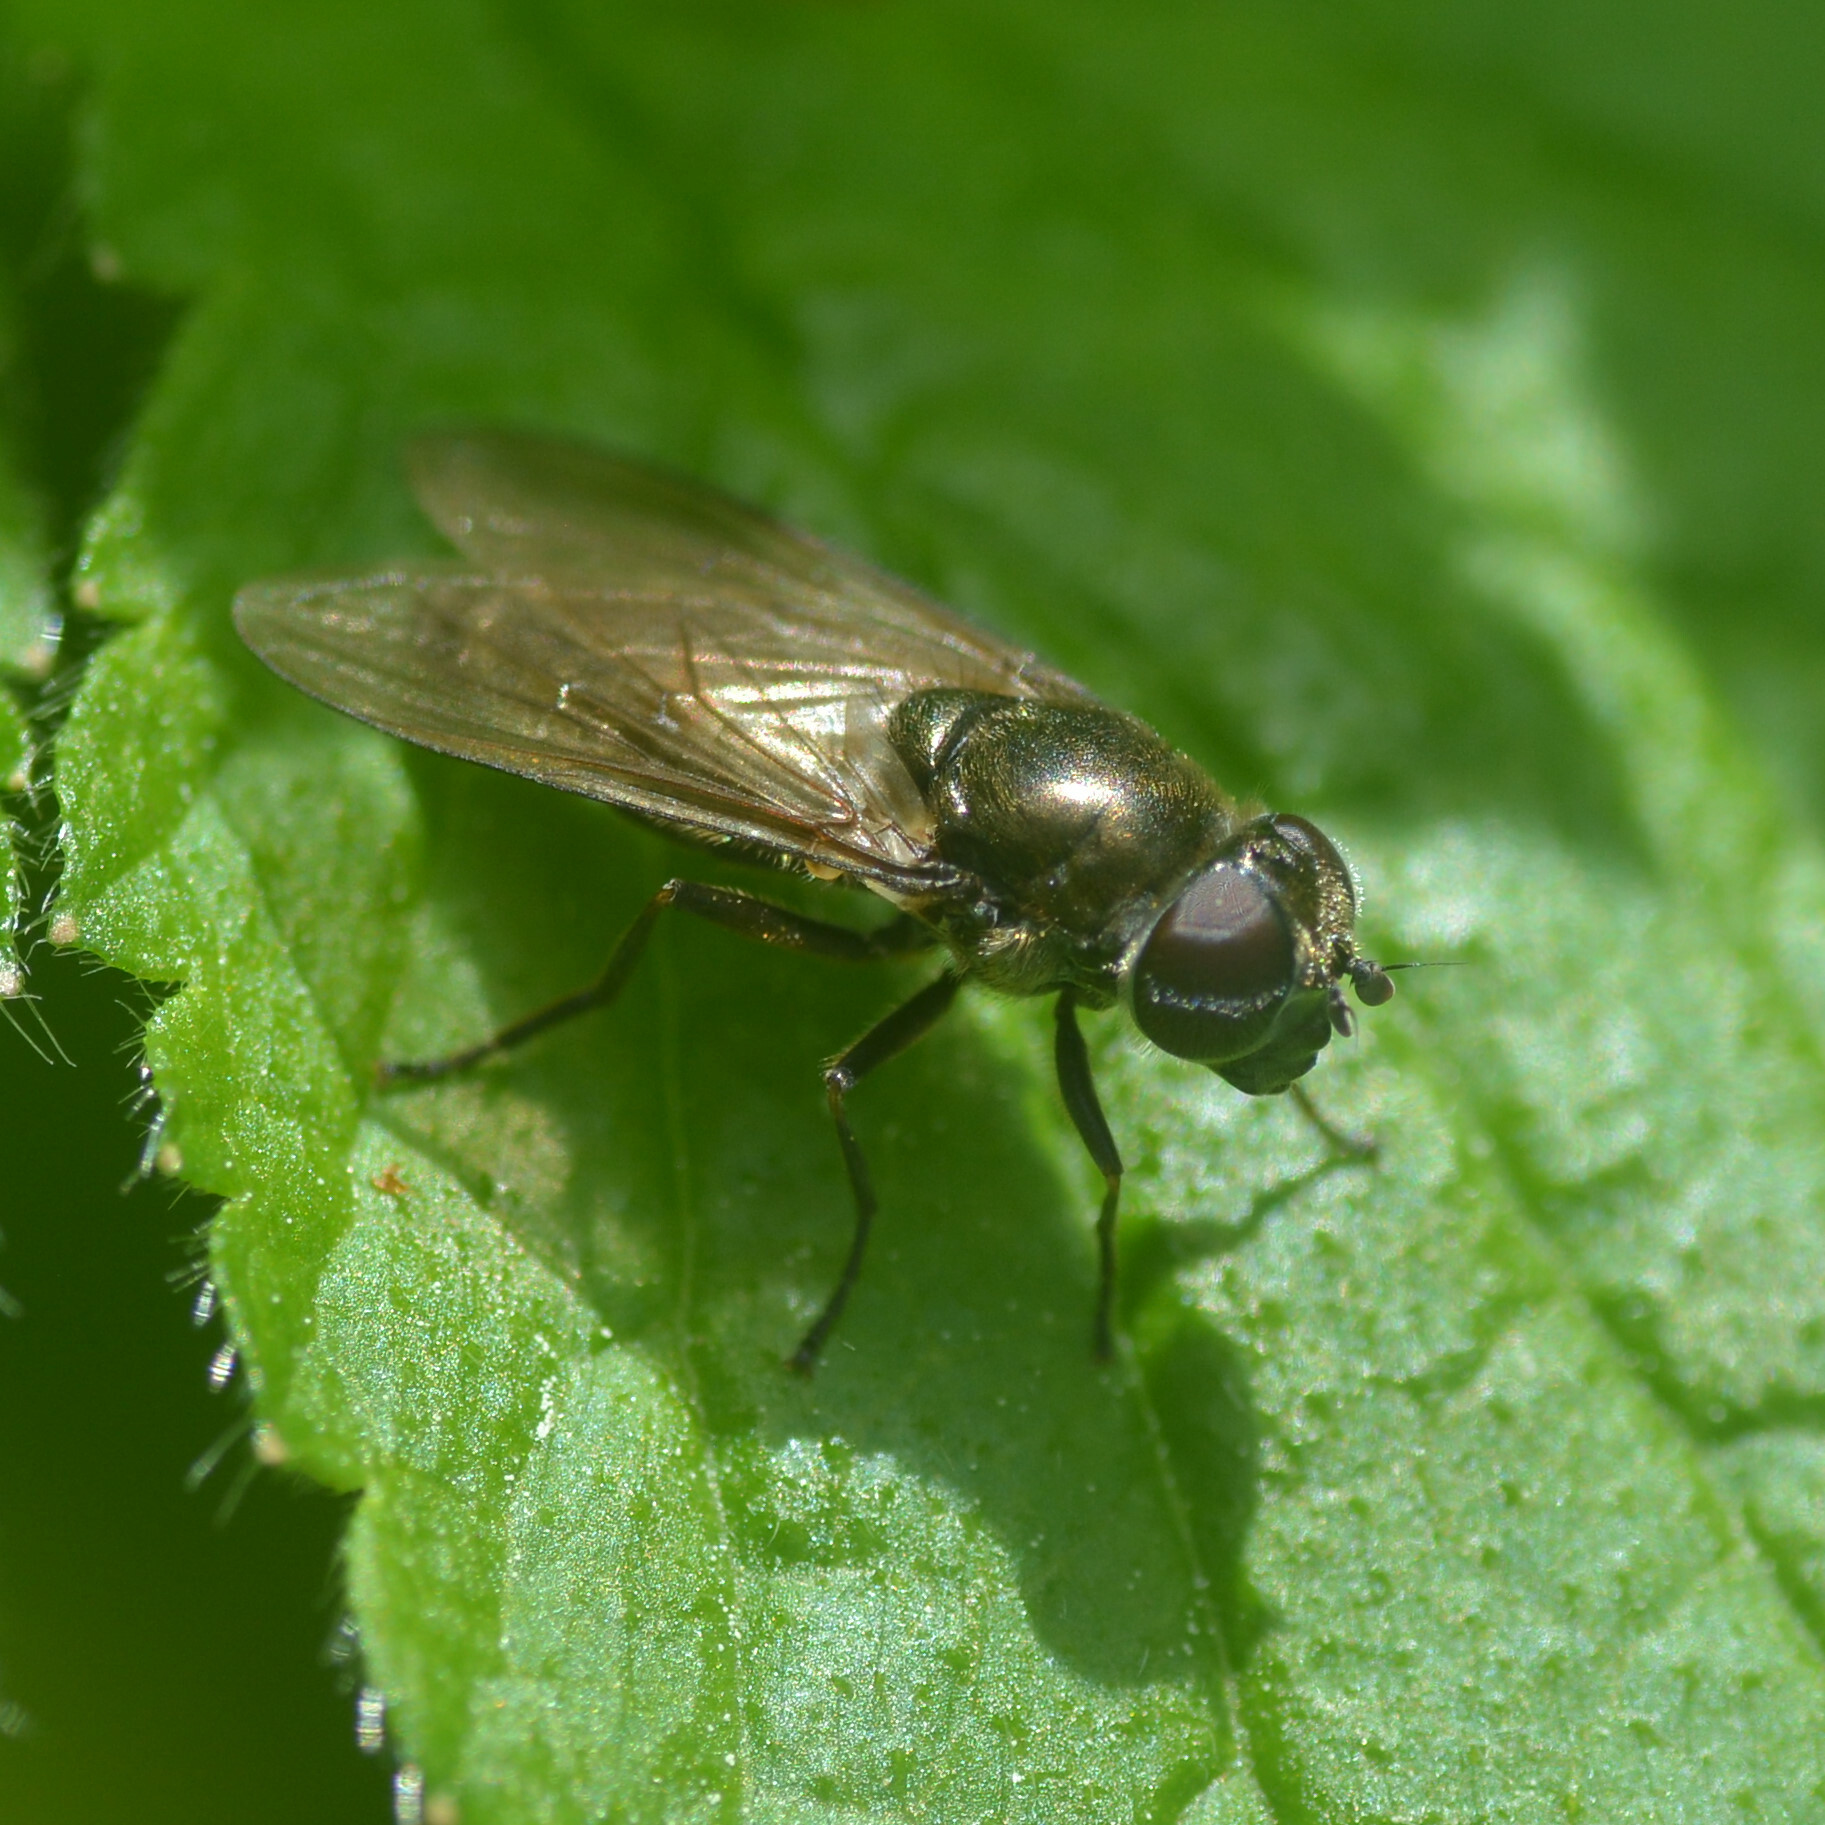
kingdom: Animalia
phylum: Arthropoda
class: Insecta
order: Diptera
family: Syrphidae
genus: Cheilosia
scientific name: Cheilosia
